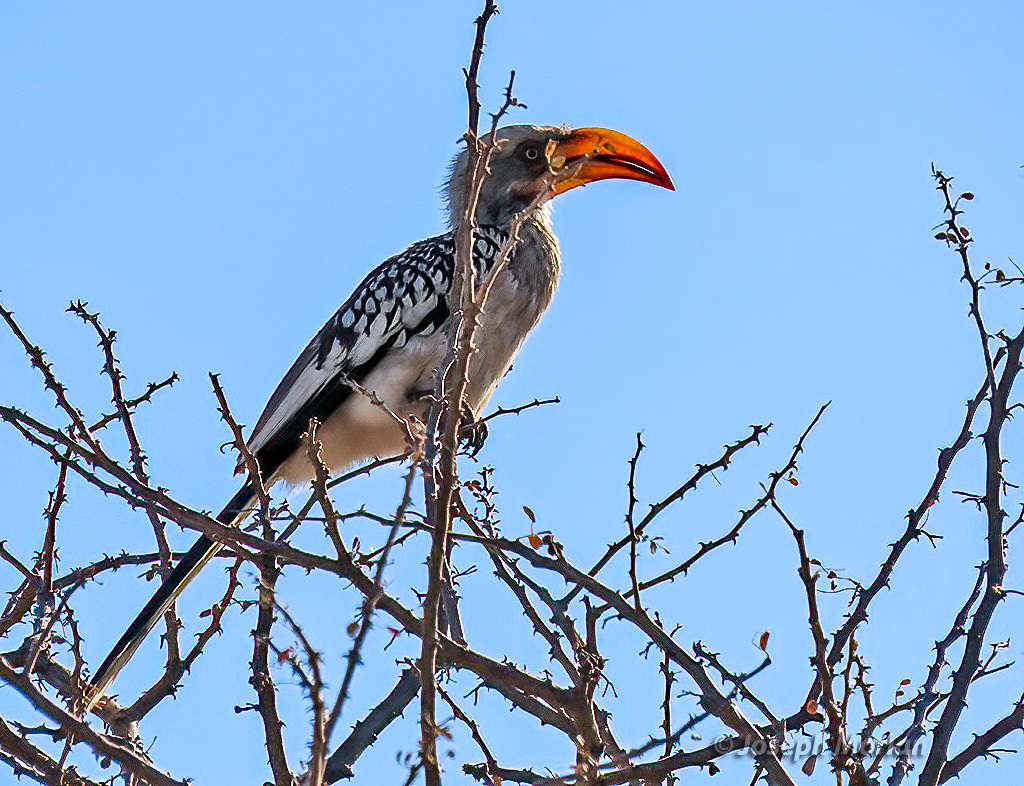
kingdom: Animalia
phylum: Chordata
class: Aves
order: Bucerotiformes
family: Bucerotidae
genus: Tockus
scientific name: Tockus leucomelas
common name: Southern yellow-billed hornbill
